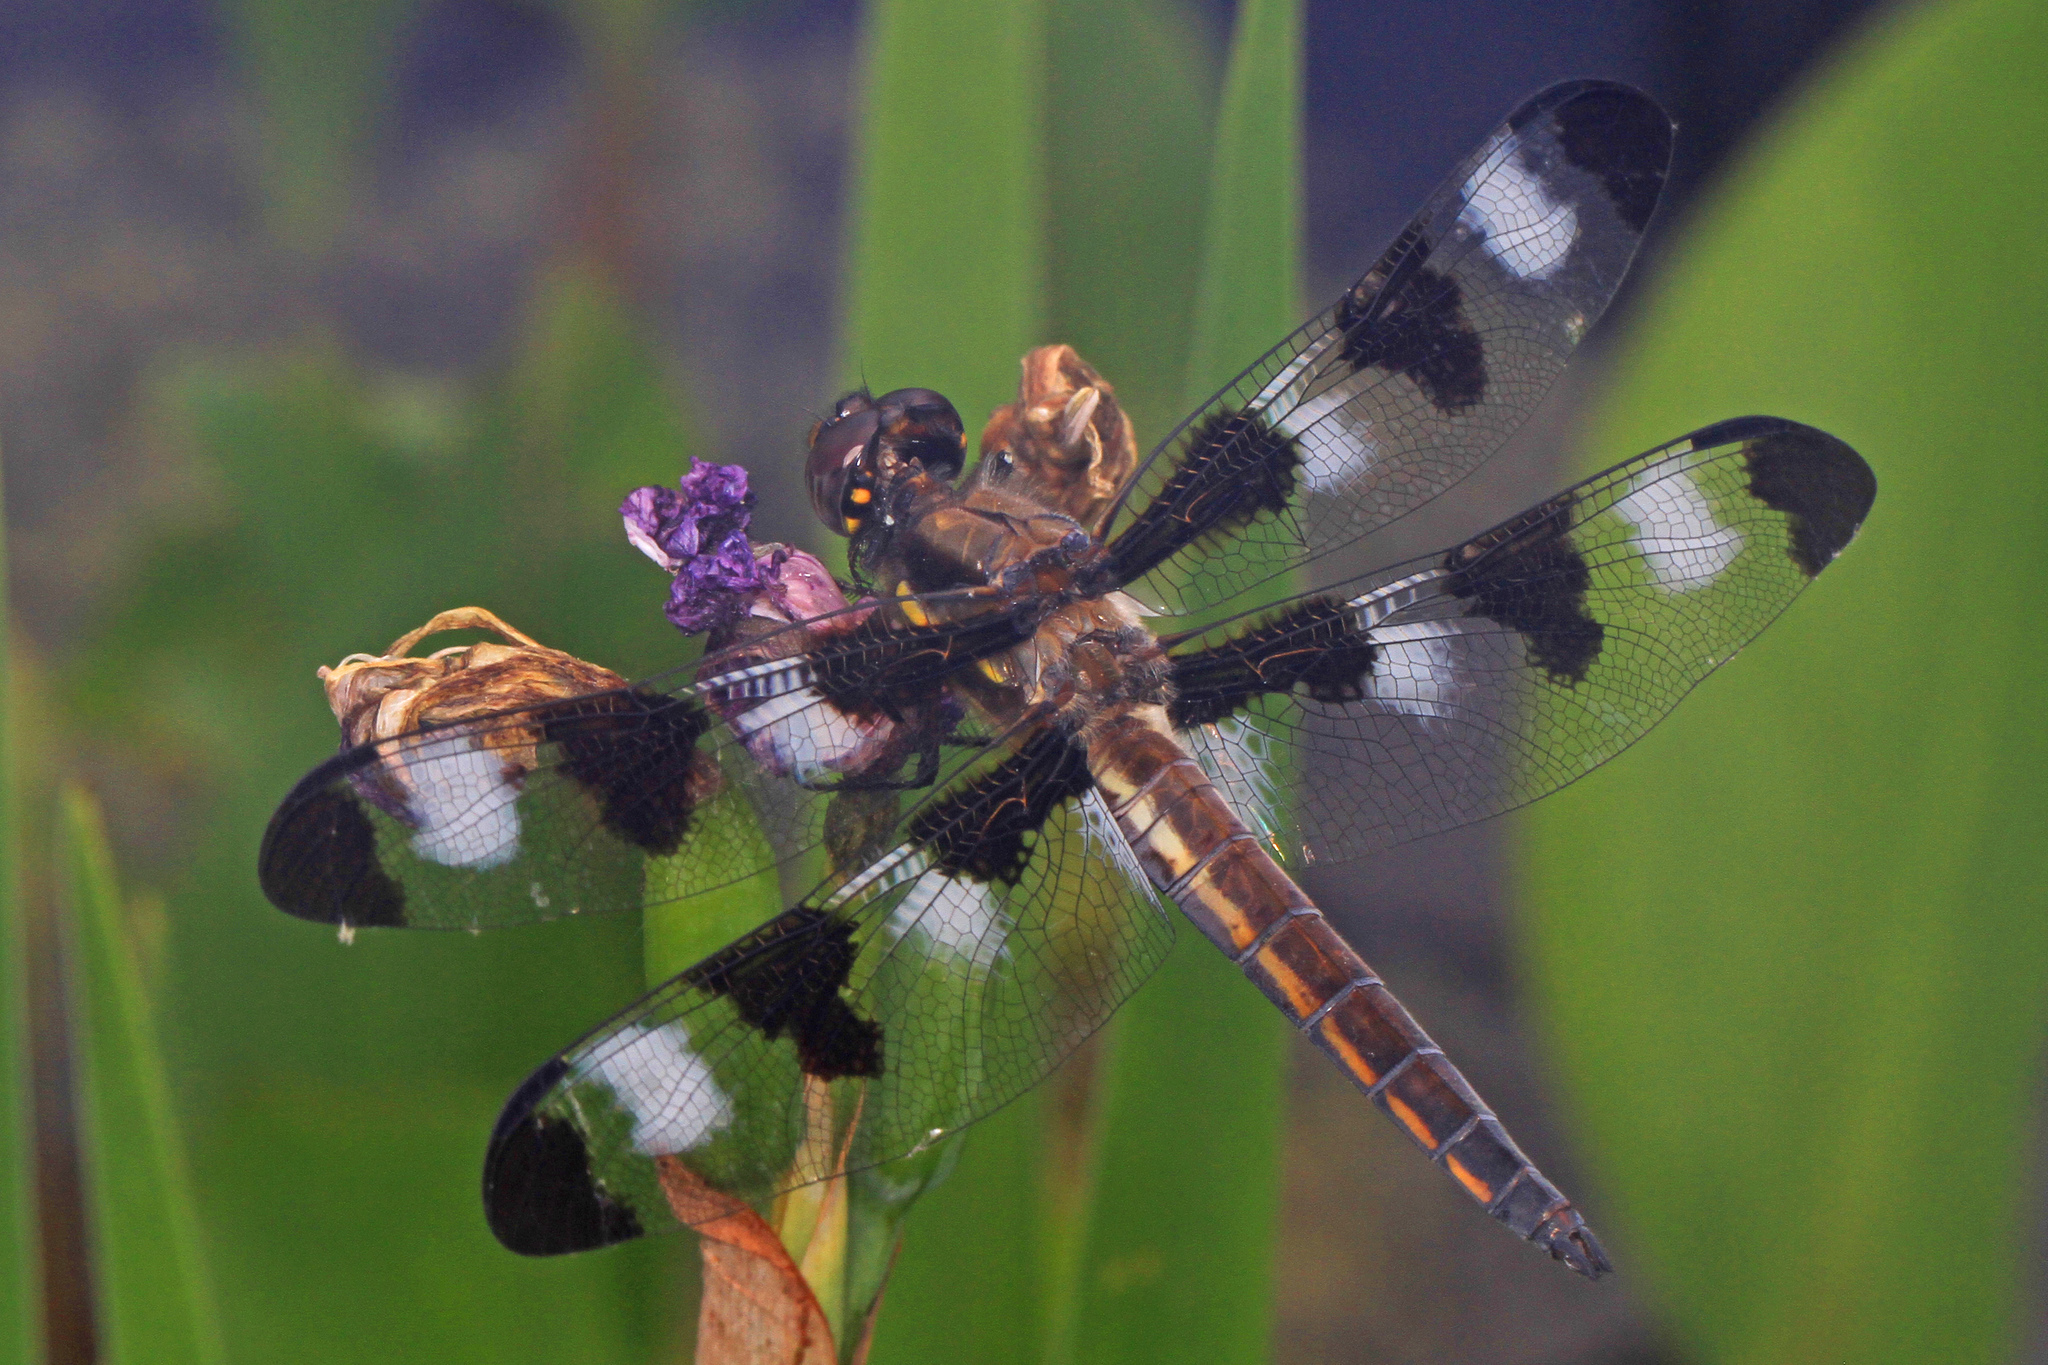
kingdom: Animalia
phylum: Arthropoda
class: Insecta
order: Odonata
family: Libellulidae
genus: Libellula
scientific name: Libellula pulchella
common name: Twelve-spotted skimmer
